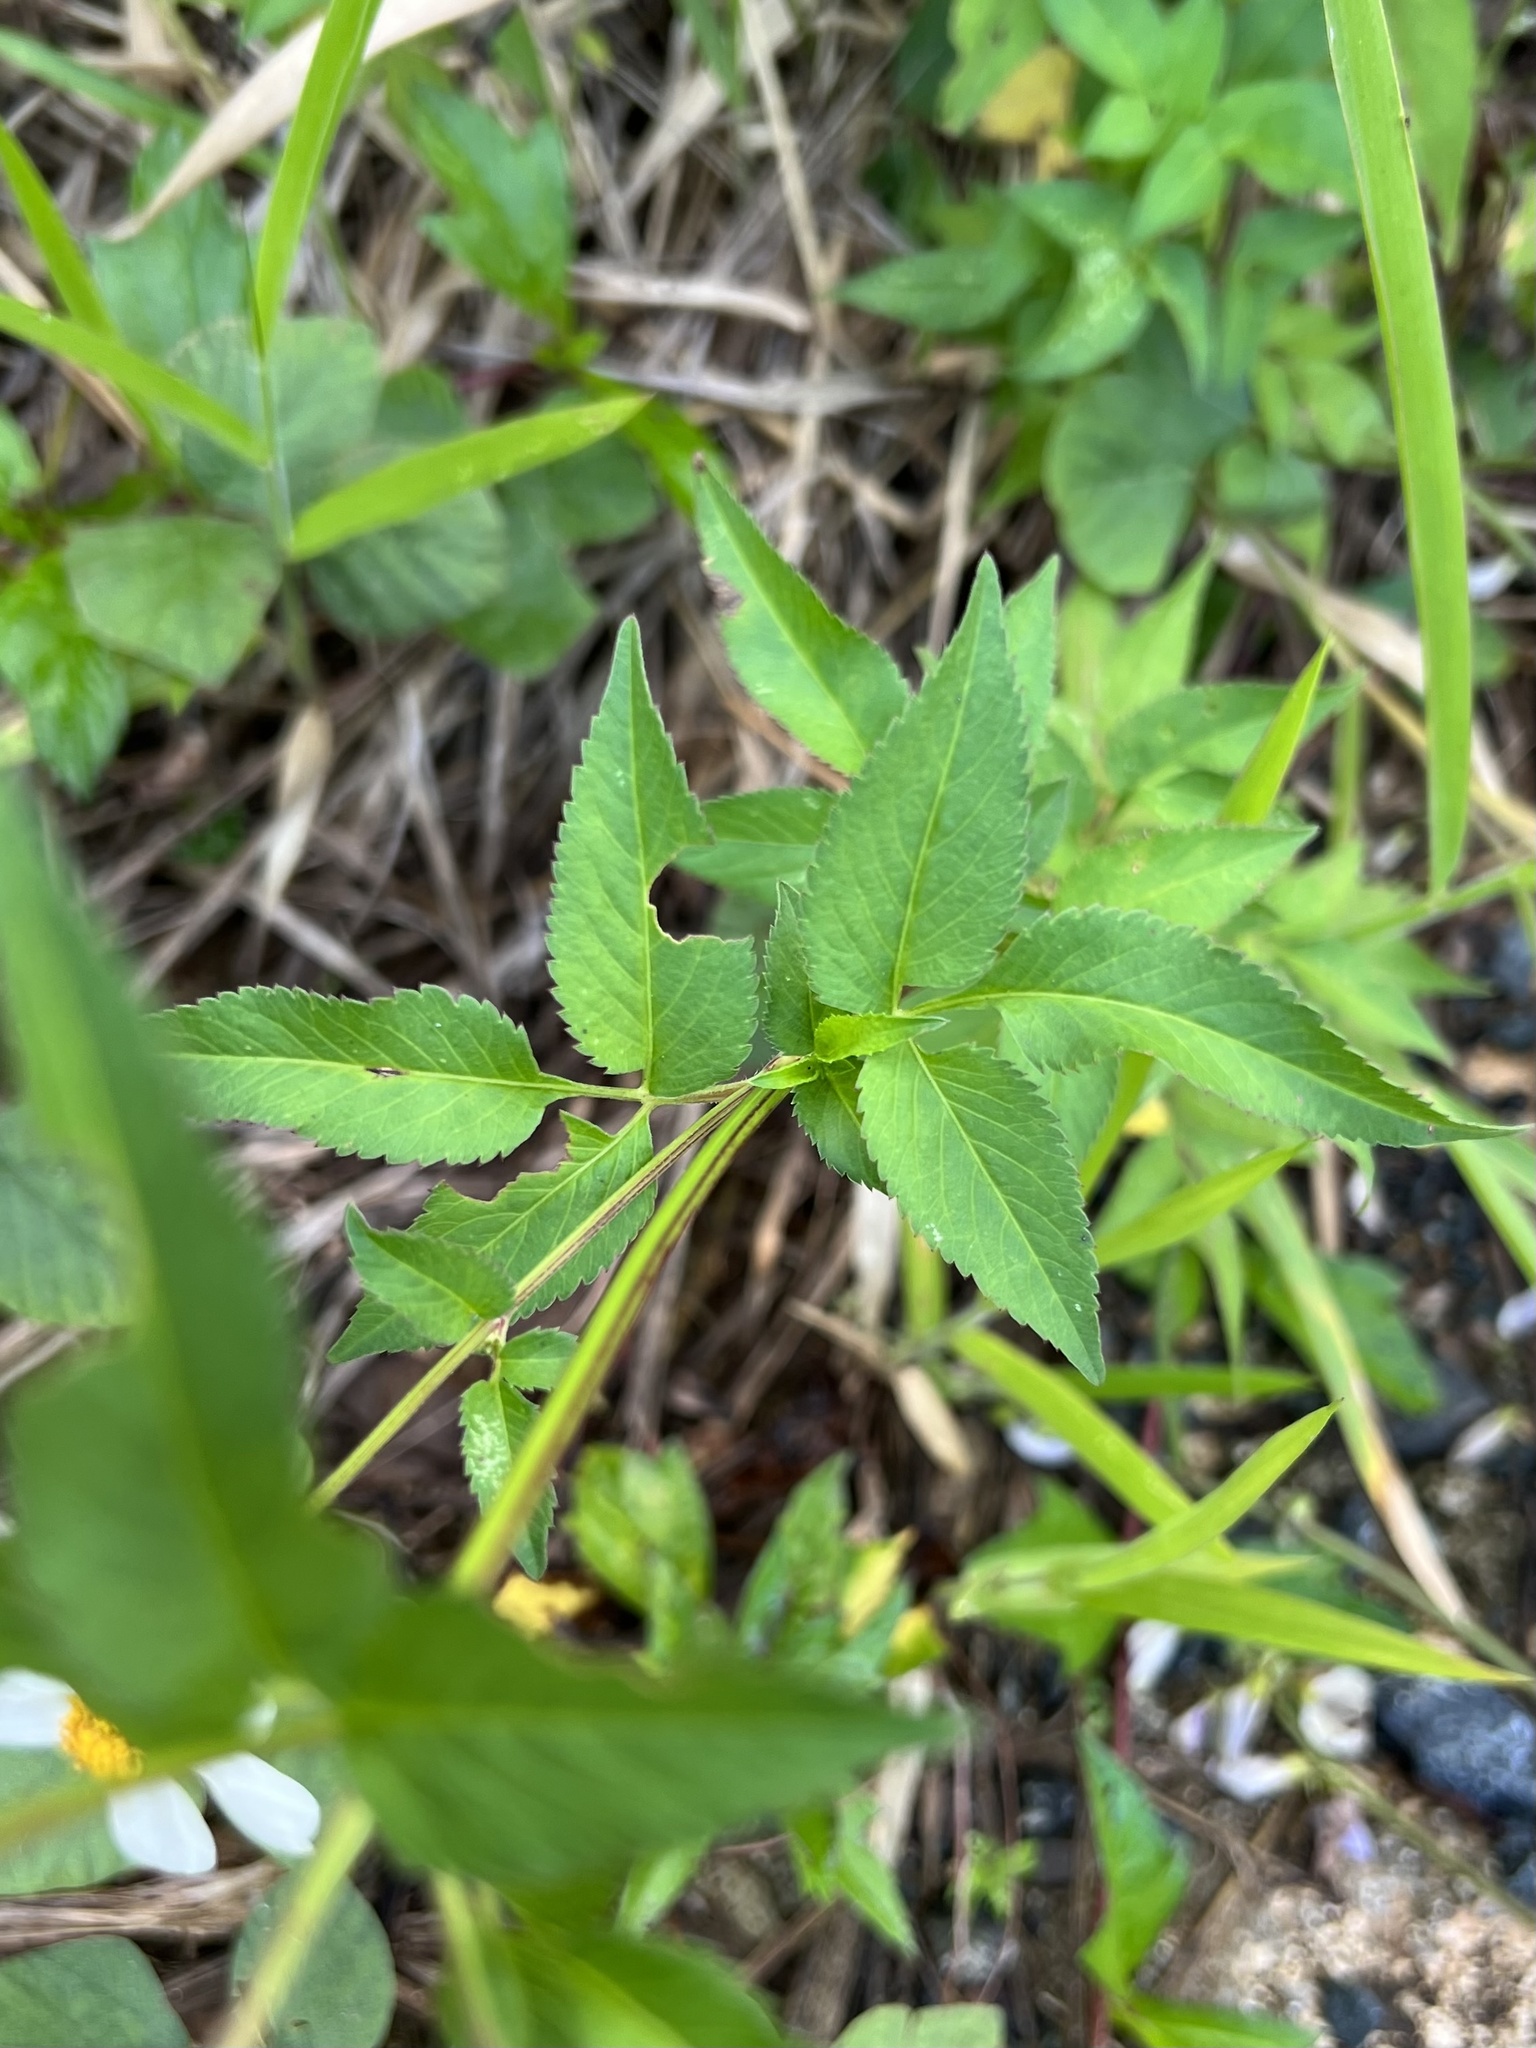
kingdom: Plantae
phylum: Tracheophyta
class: Magnoliopsida
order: Asterales
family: Asteraceae
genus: Bidens
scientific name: Bidens alba
